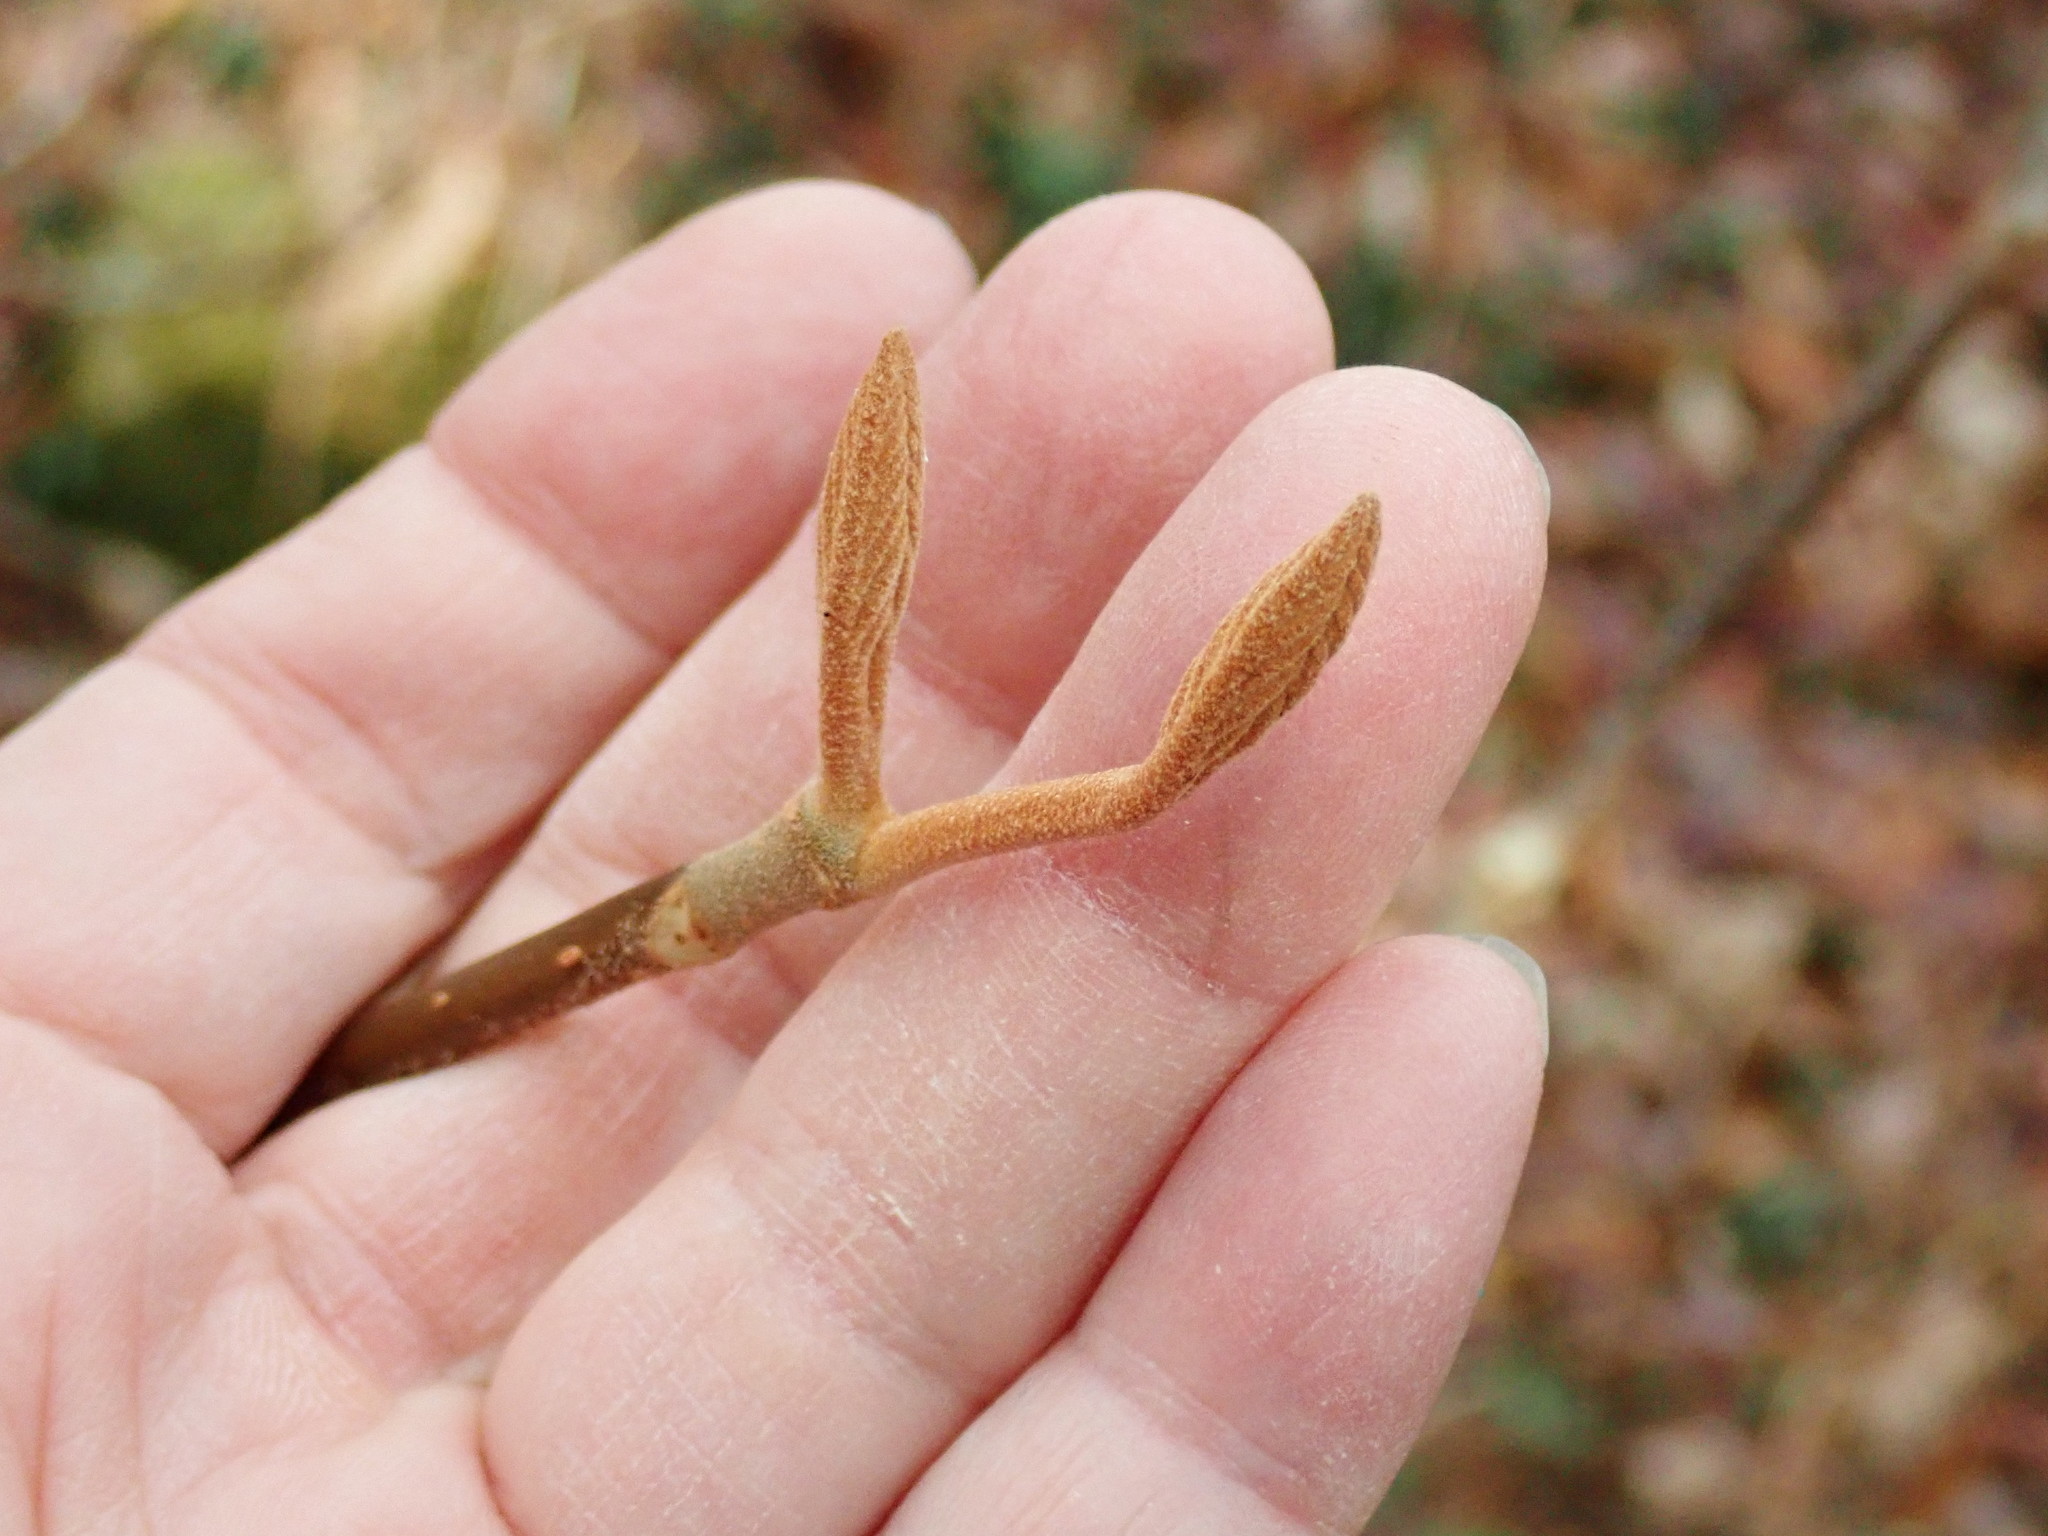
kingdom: Plantae
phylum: Tracheophyta
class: Magnoliopsida
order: Dipsacales
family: Viburnaceae
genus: Viburnum
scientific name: Viburnum lantanoides
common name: Hobblebush
